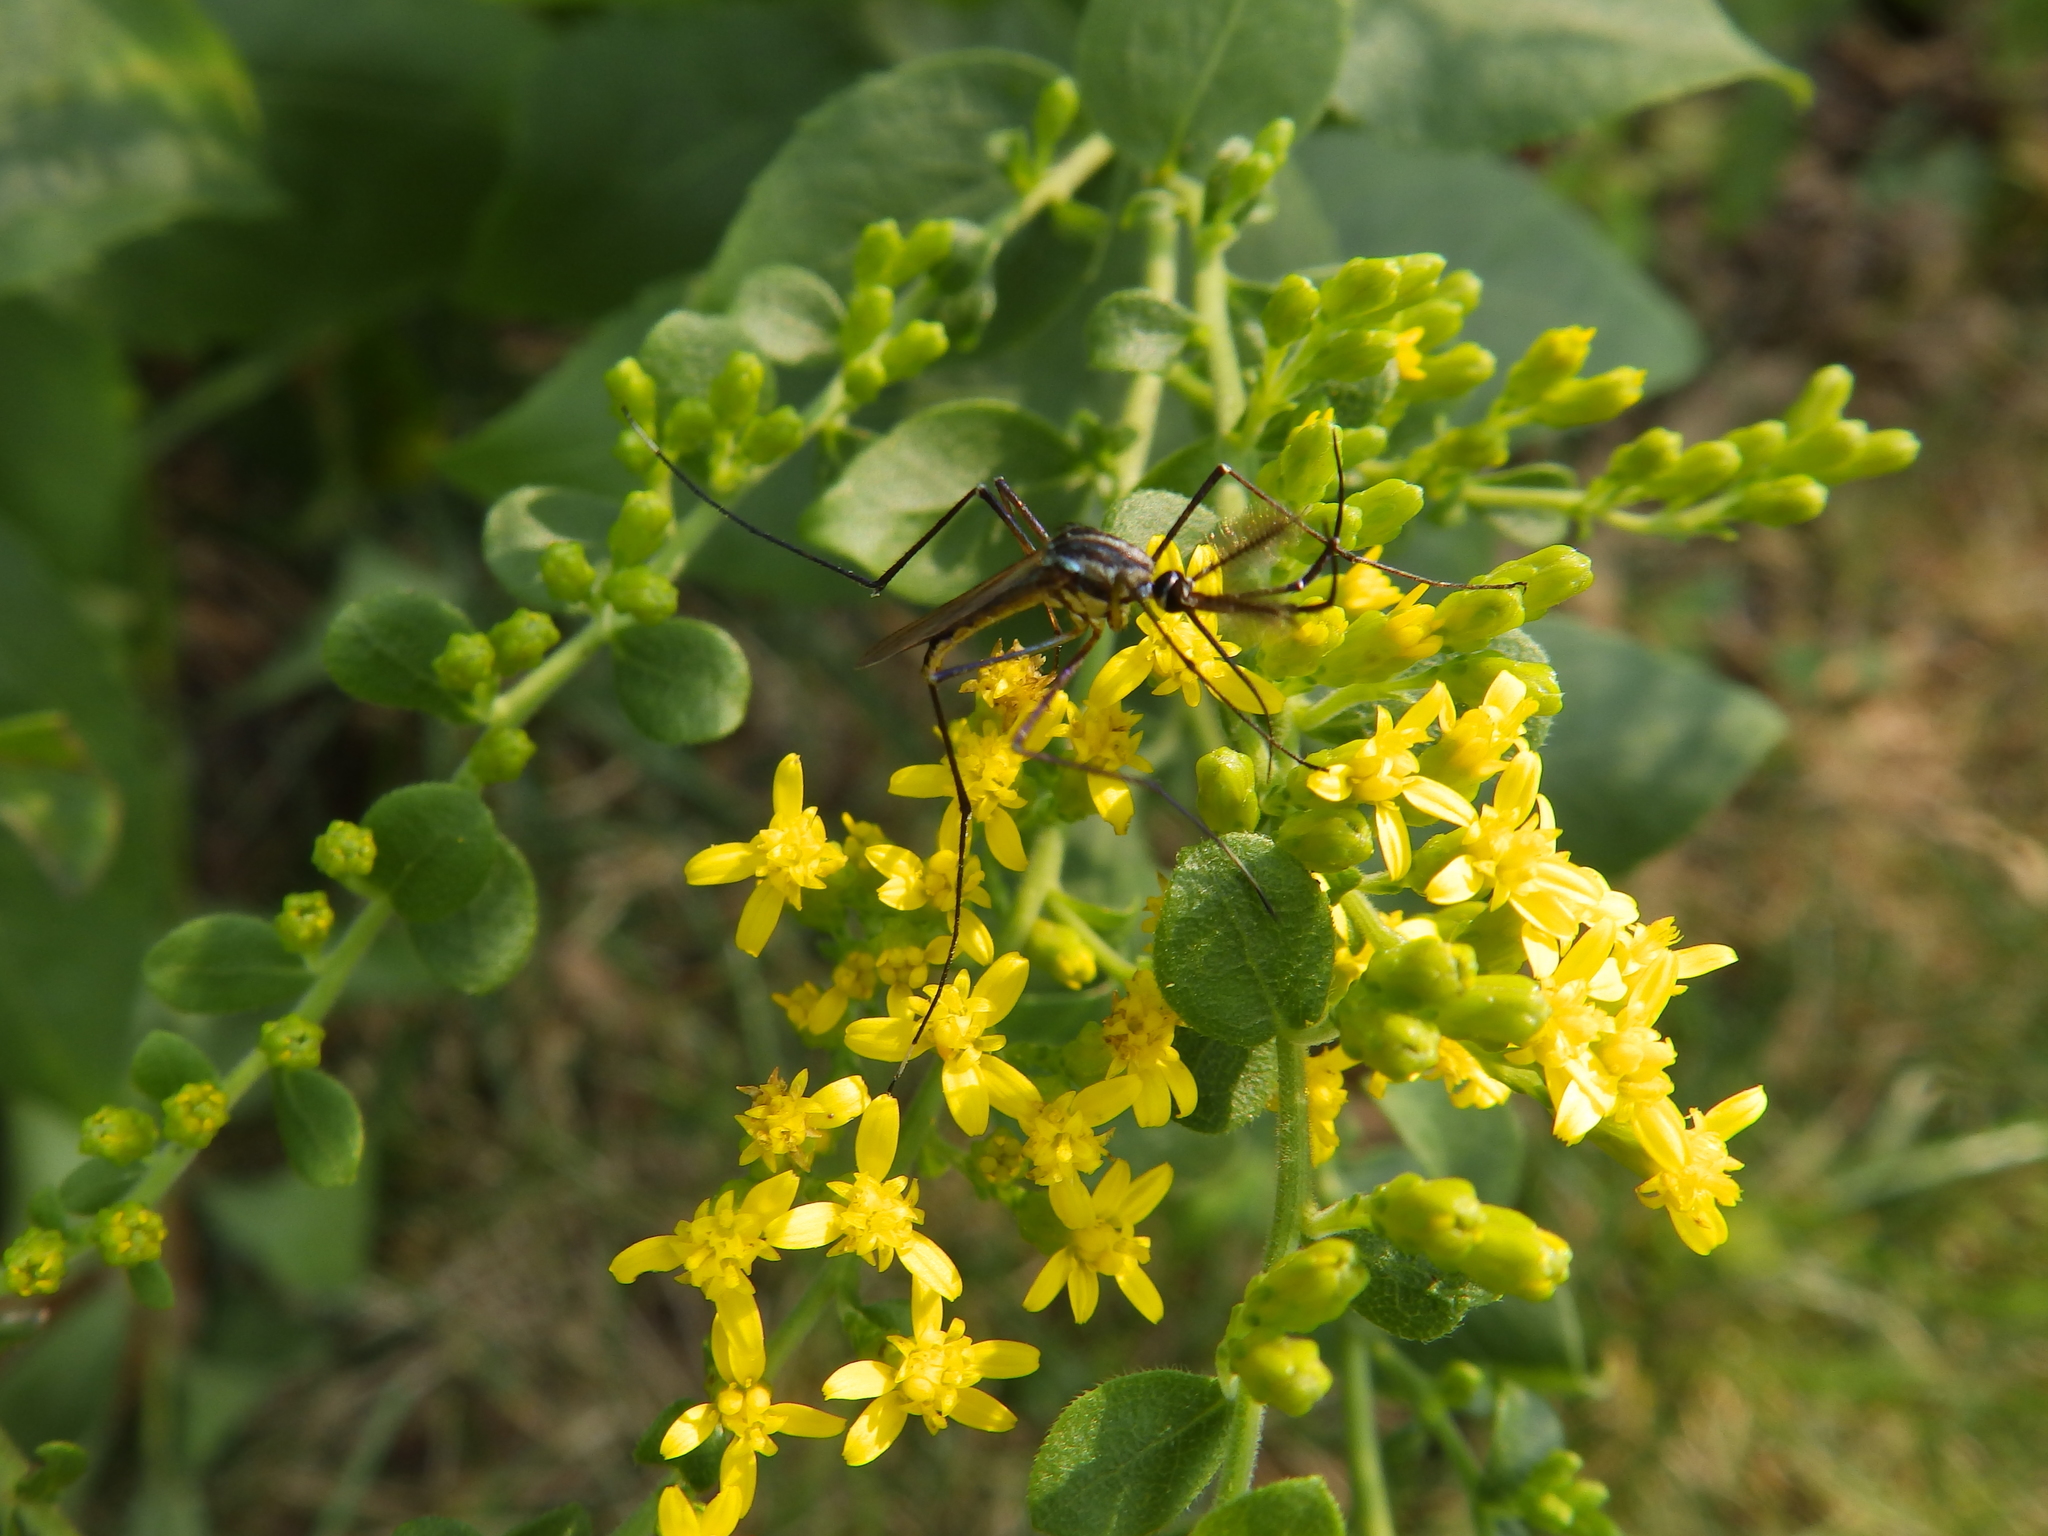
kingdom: Animalia
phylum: Arthropoda
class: Insecta
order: Diptera
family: Culicidae
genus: Toxorhynchites
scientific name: Toxorhynchites rutilus
